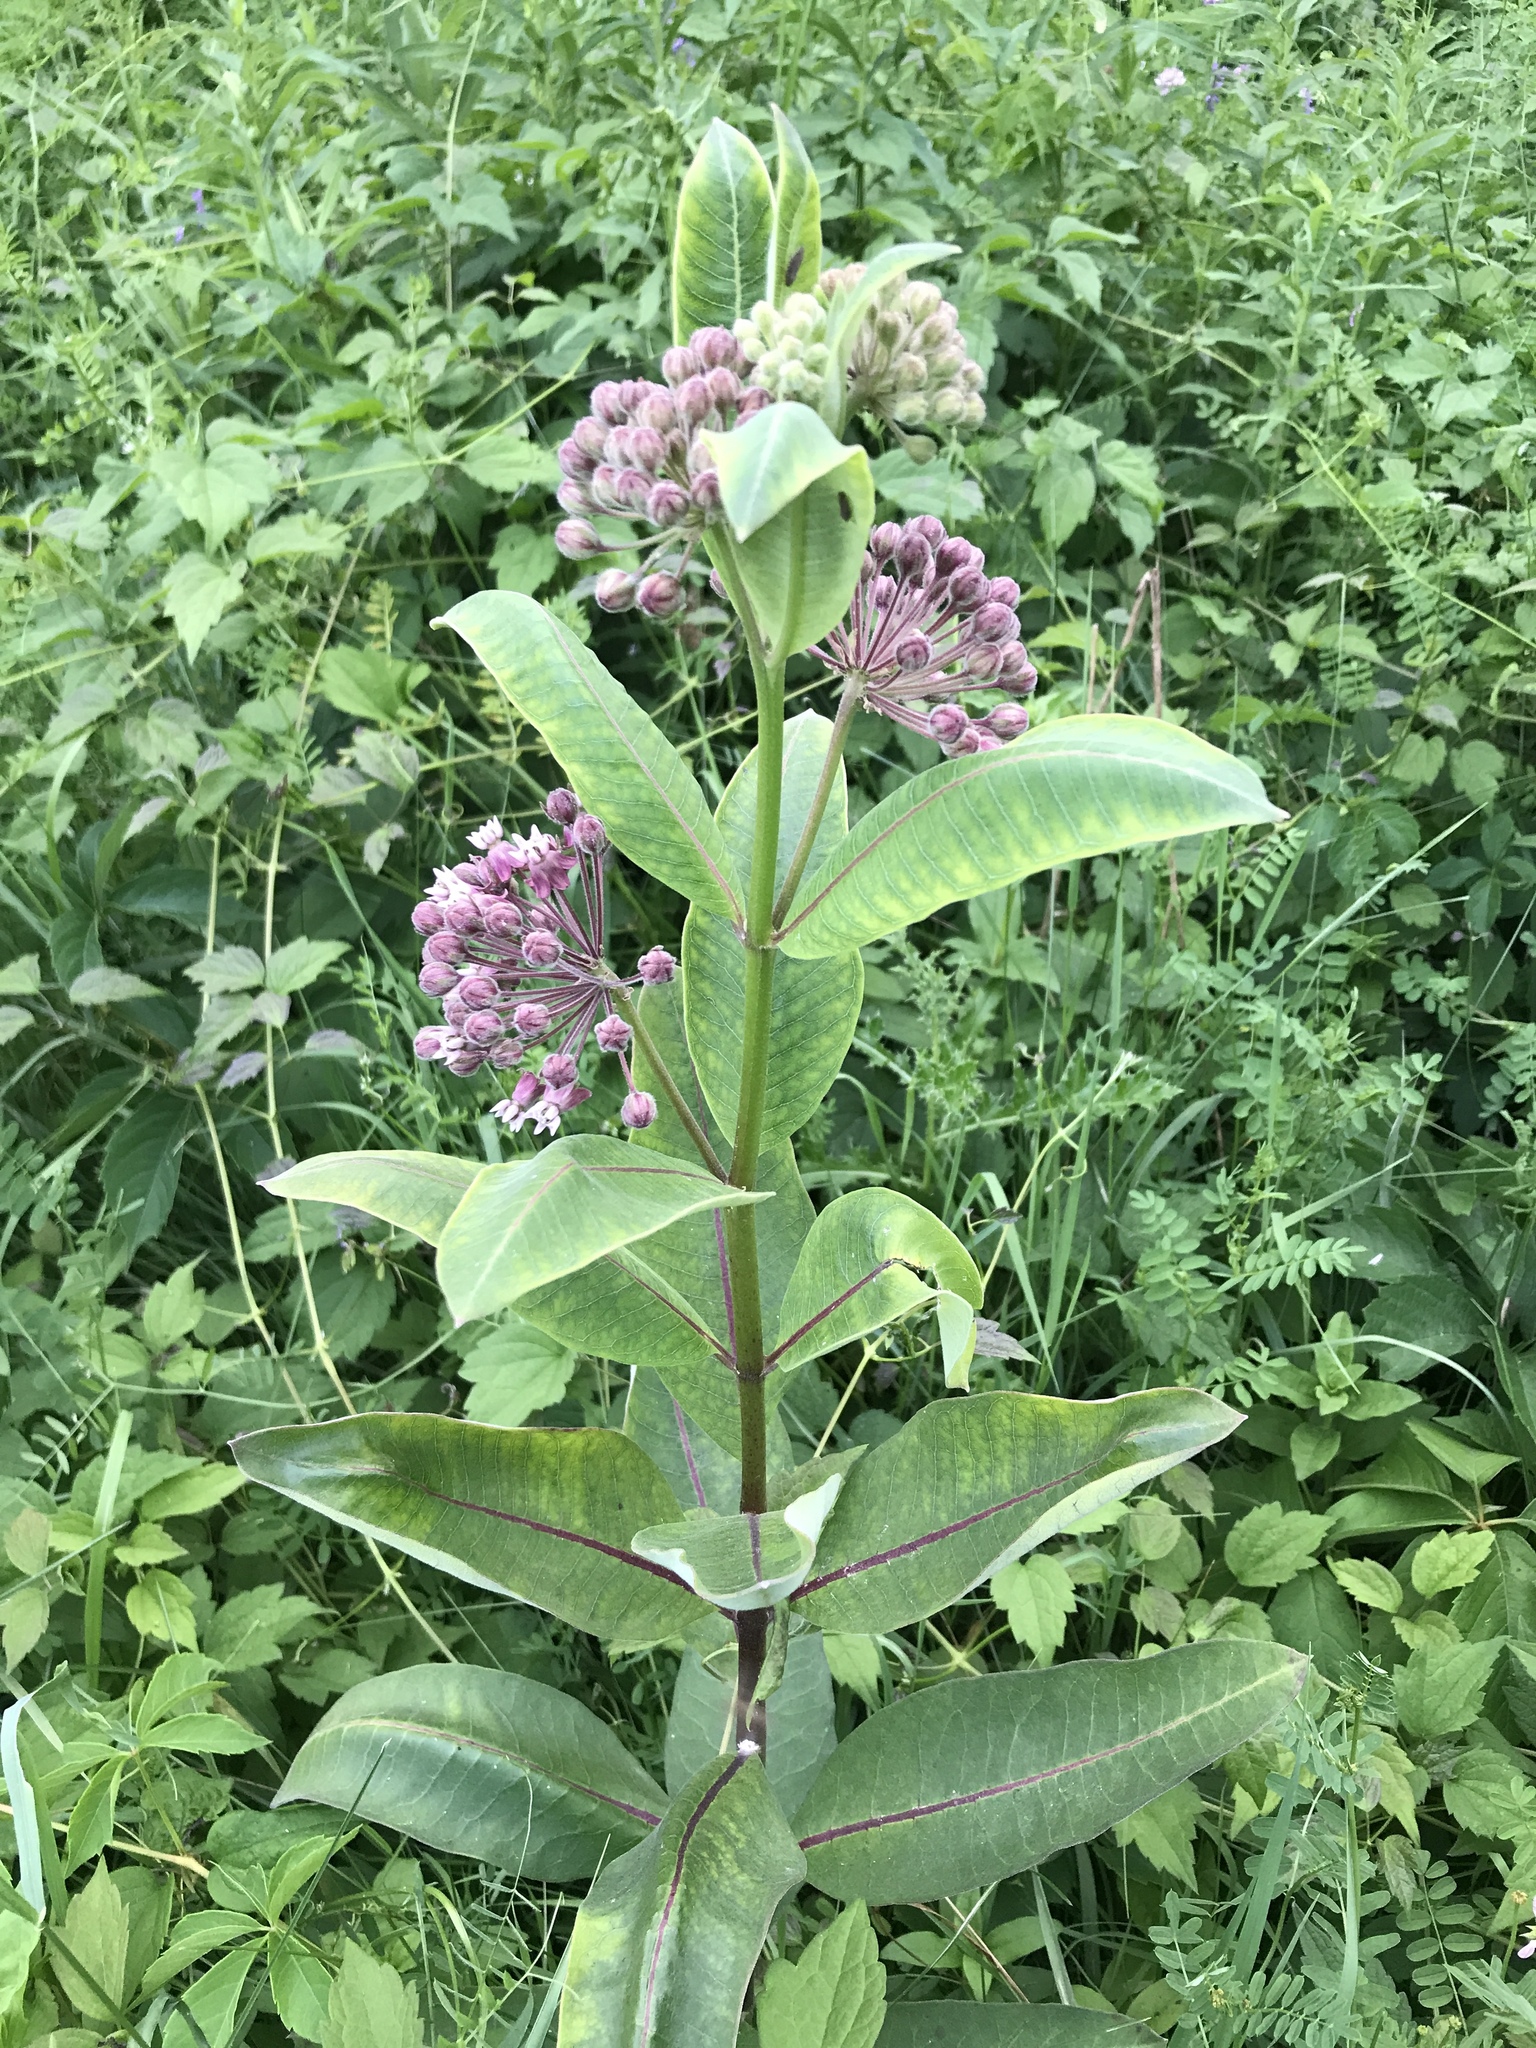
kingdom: Plantae
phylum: Tracheophyta
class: Magnoliopsida
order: Gentianales
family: Apocynaceae
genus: Asclepias
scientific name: Asclepias syriaca
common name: Common milkweed
